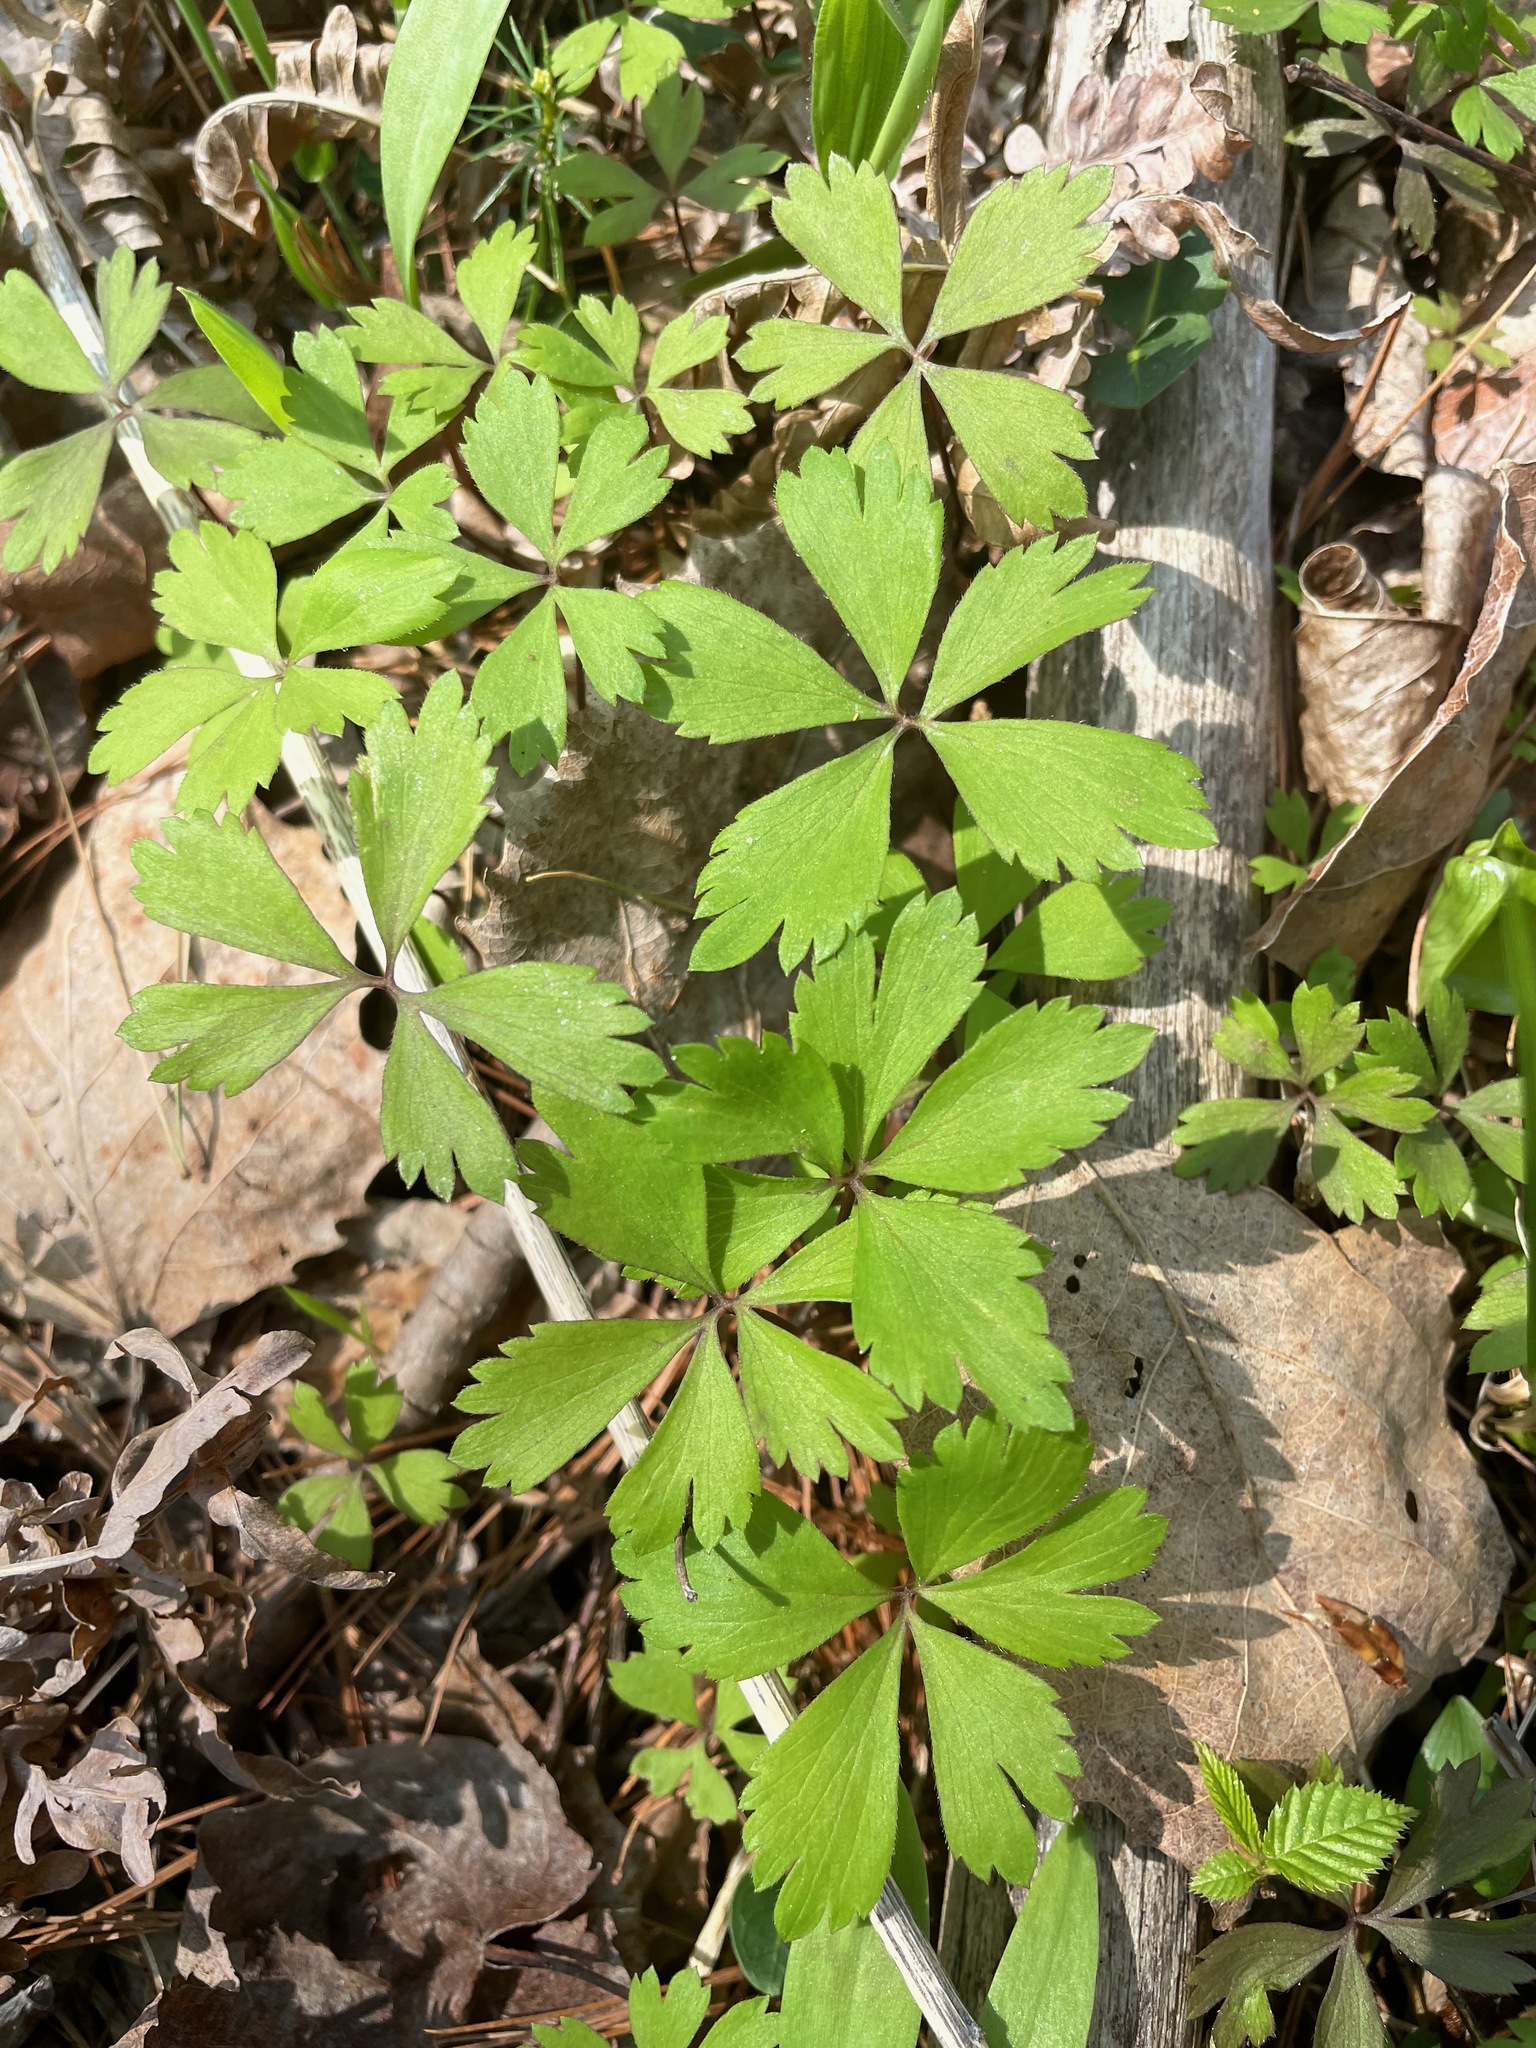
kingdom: Plantae
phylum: Tracheophyta
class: Magnoliopsida
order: Ranunculales
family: Ranunculaceae
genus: Anemone
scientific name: Anemone quinquefolia
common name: Wood anemone
